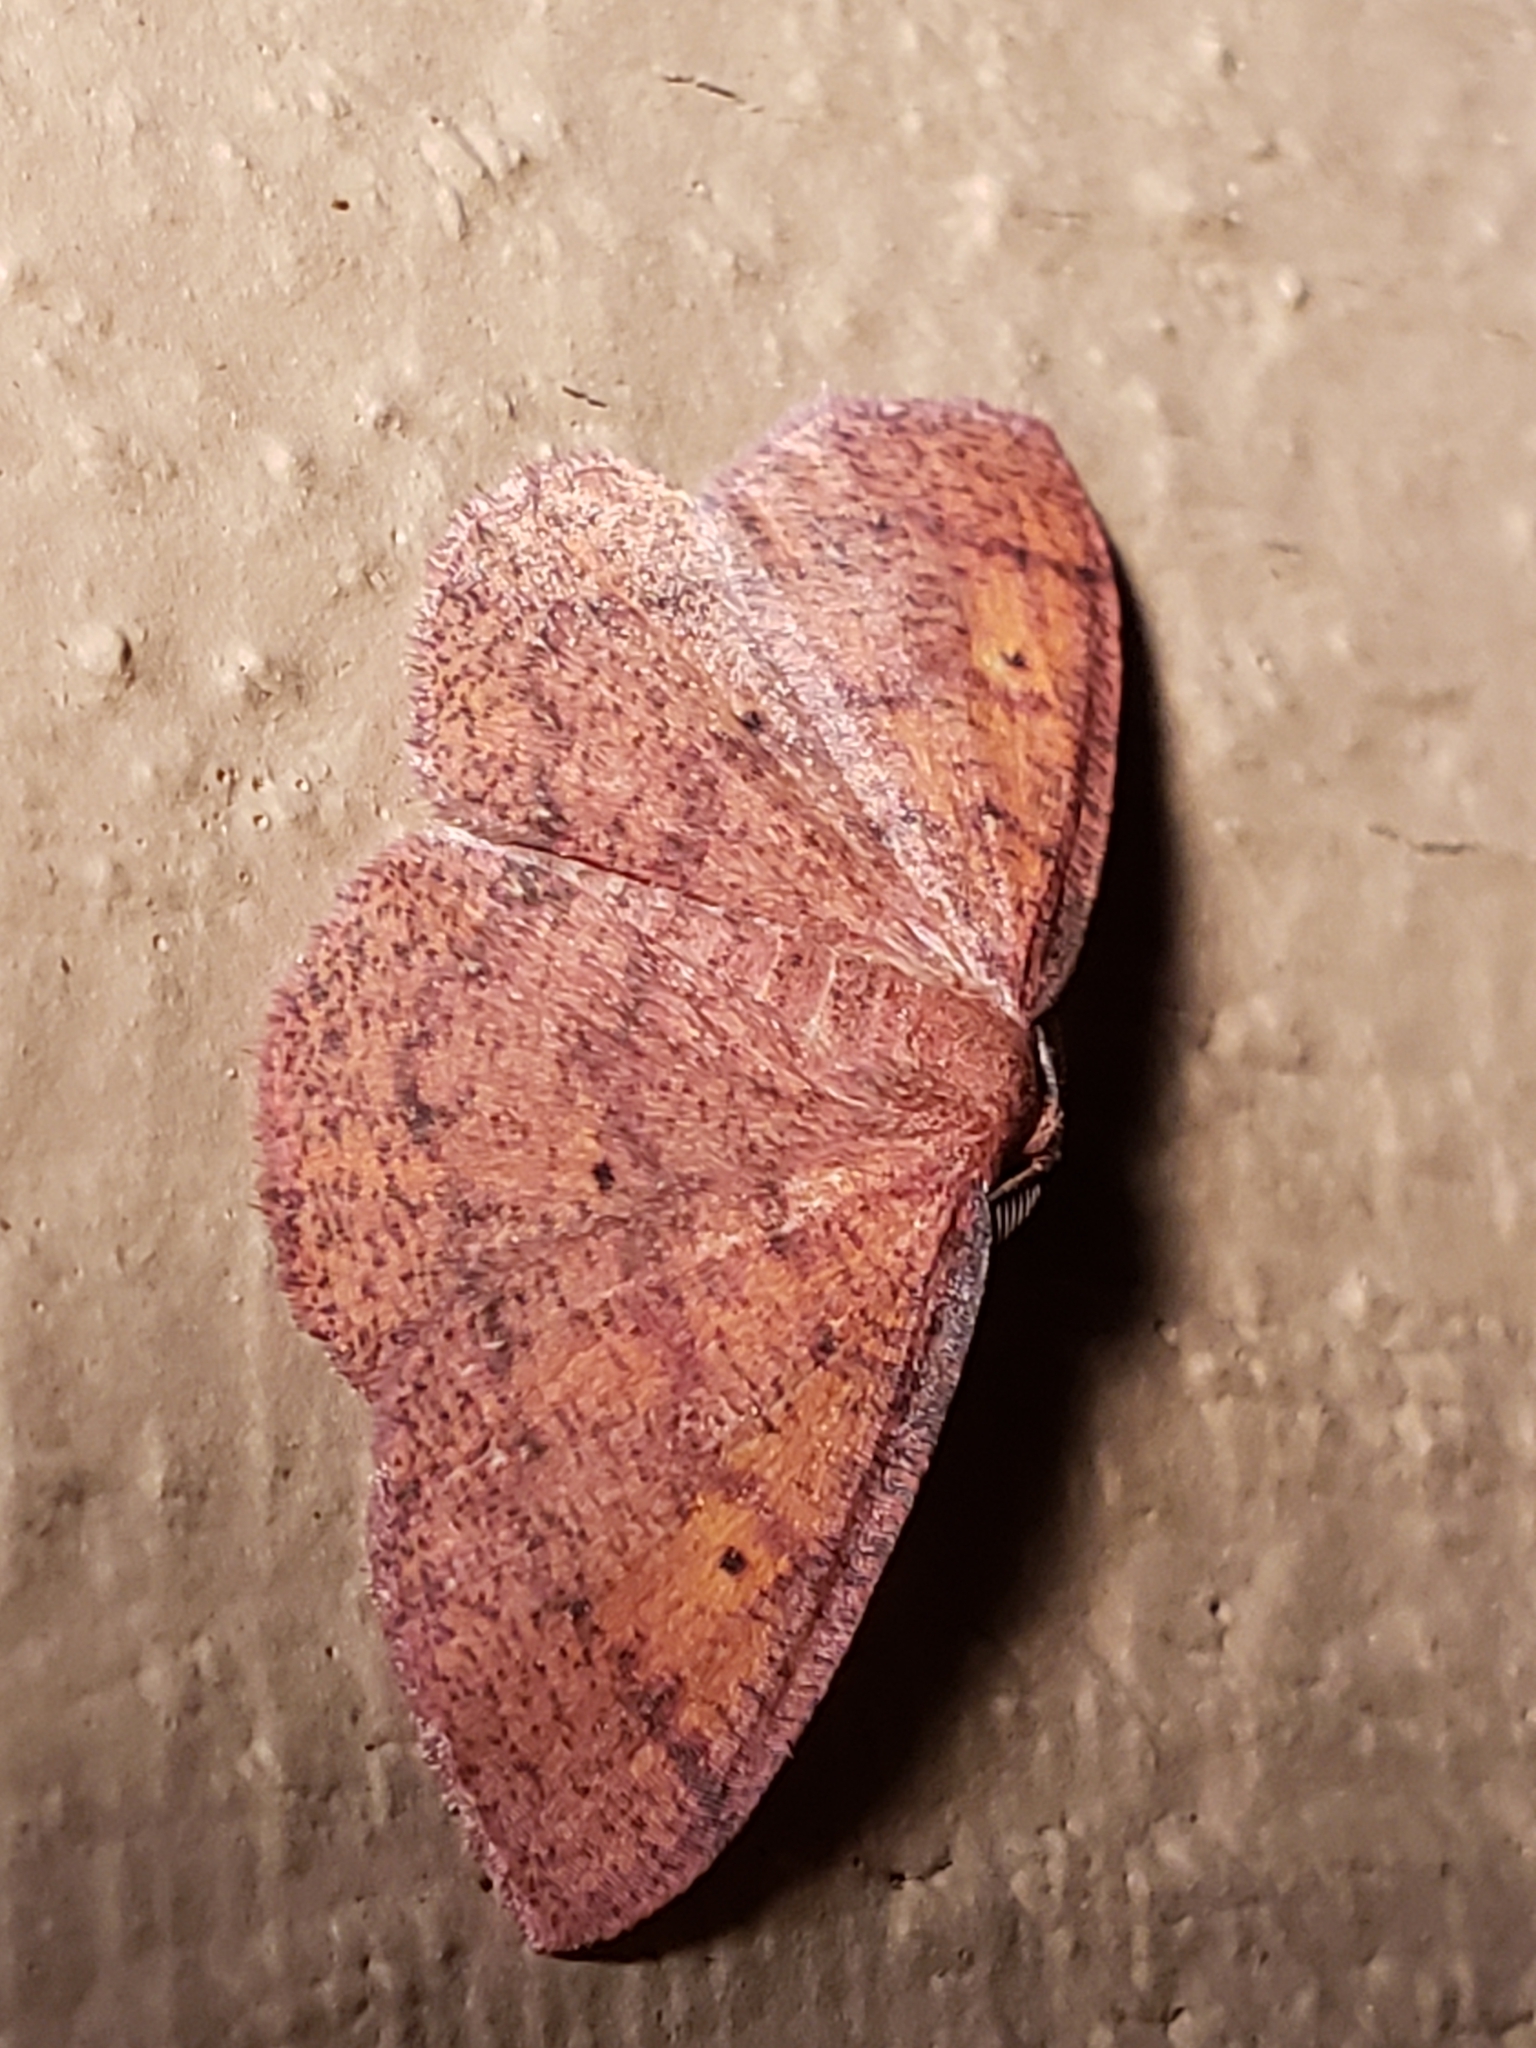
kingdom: Animalia
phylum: Arthropoda
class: Insecta
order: Lepidoptera
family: Geometridae
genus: Ilexia
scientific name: Ilexia intractata
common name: Black-dotted ruddy moth
